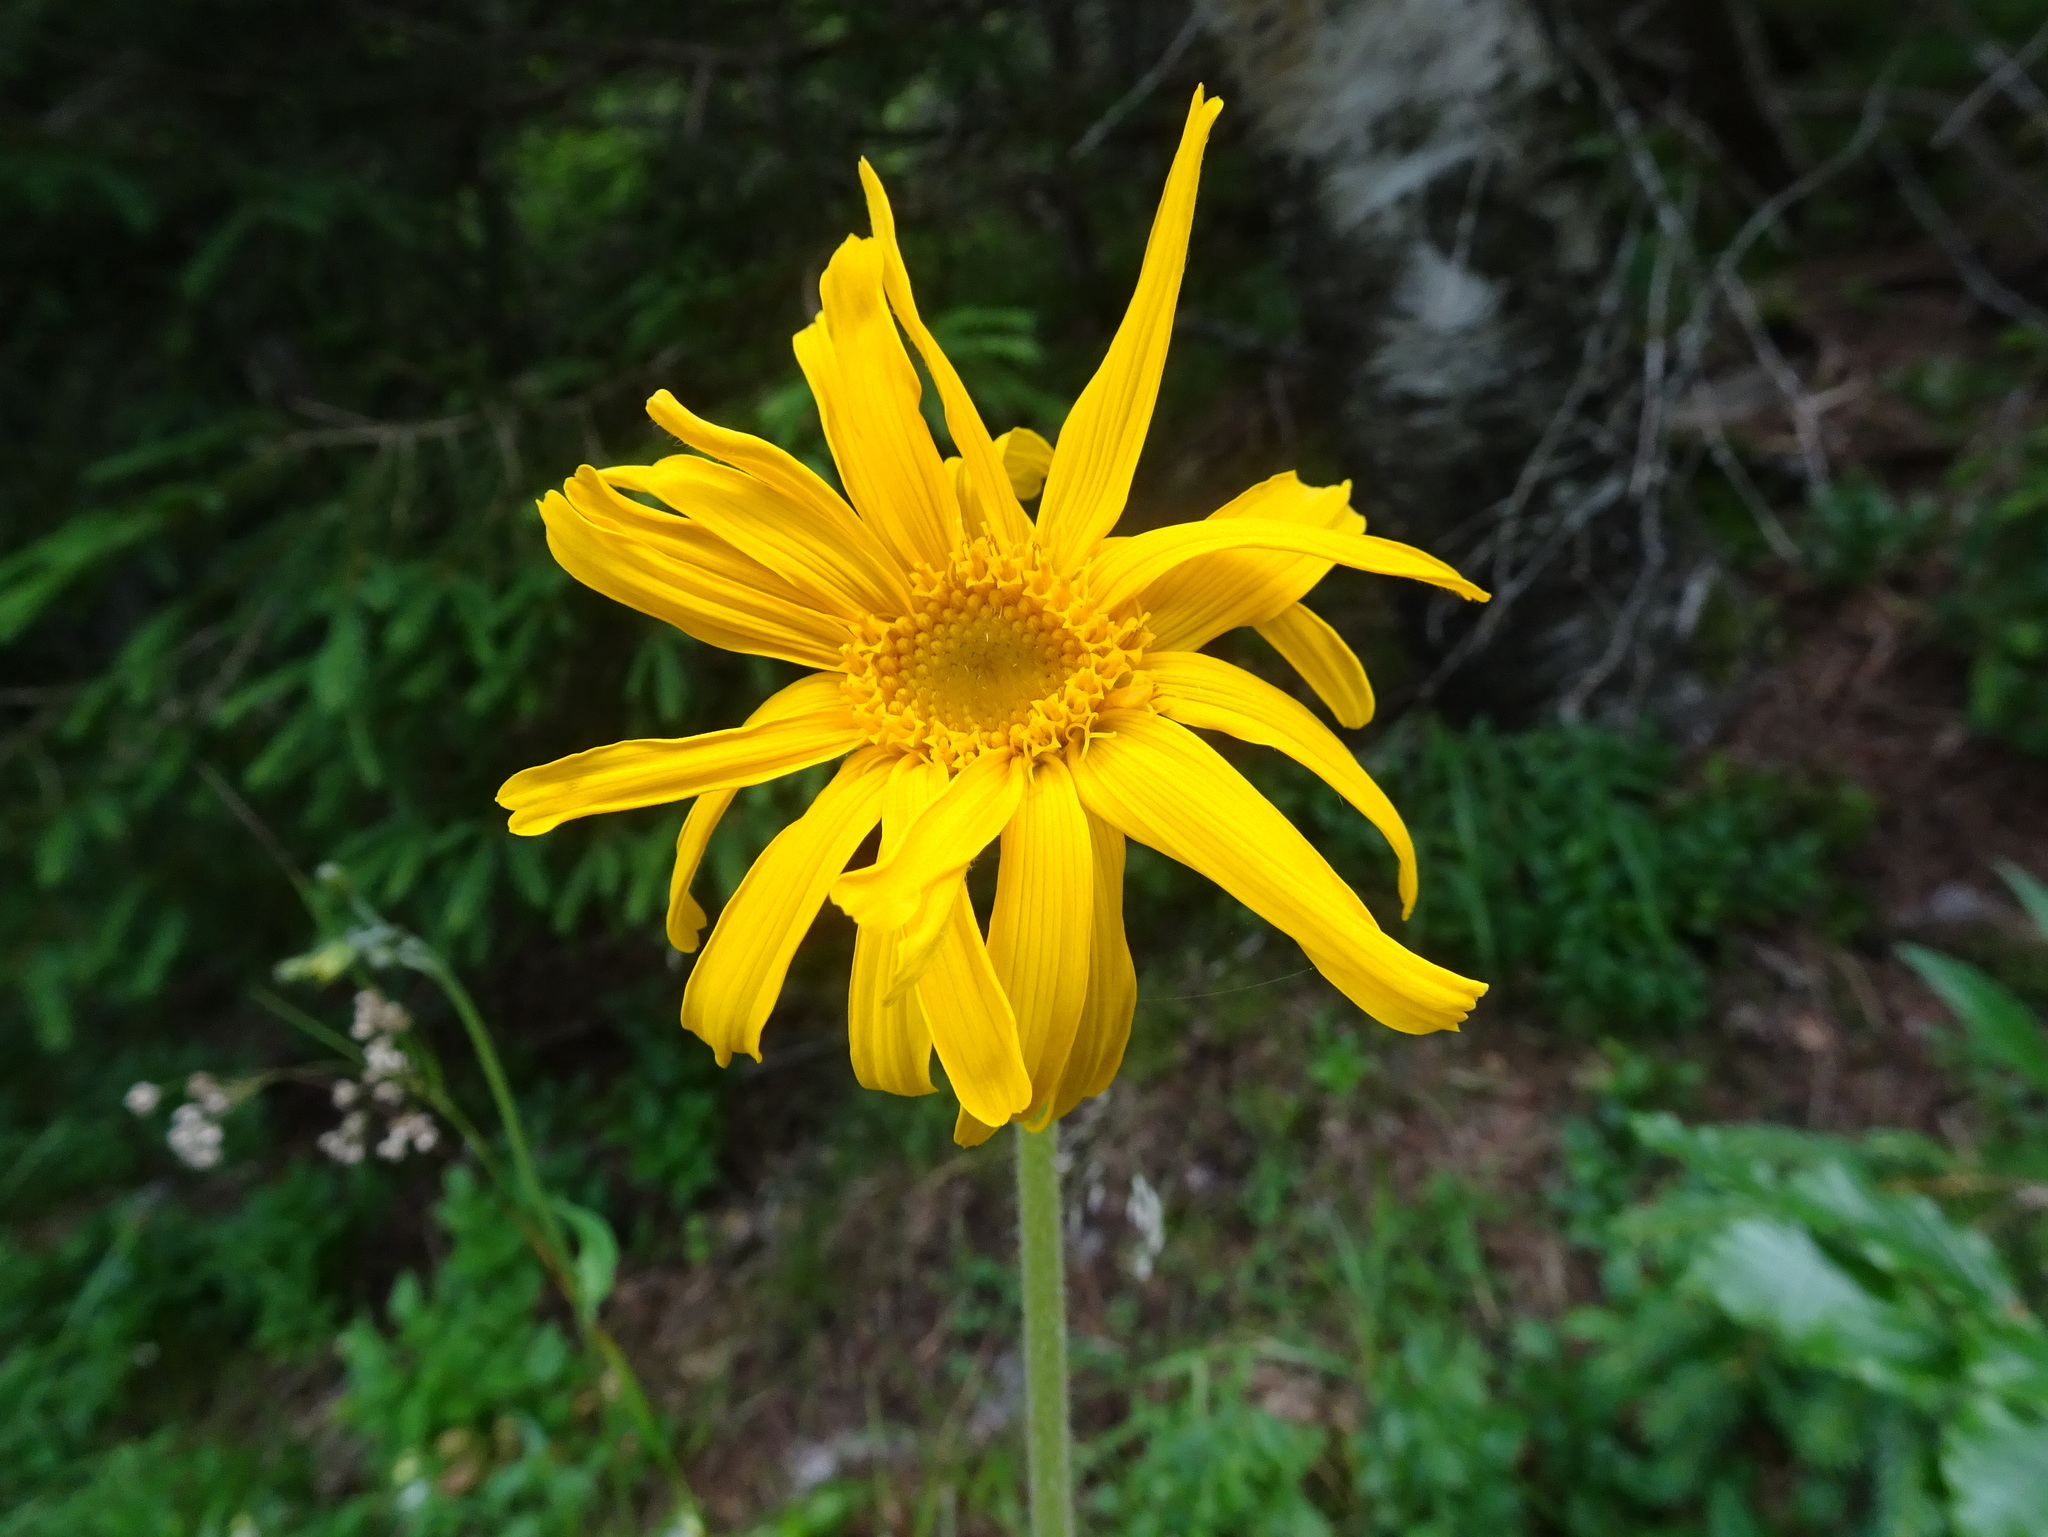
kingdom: Plantae
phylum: Tracheophyta
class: Magnoliopsida
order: Asterales
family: Asteraceae
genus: Arnica
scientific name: Arnica montana
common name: Leopard's bane
